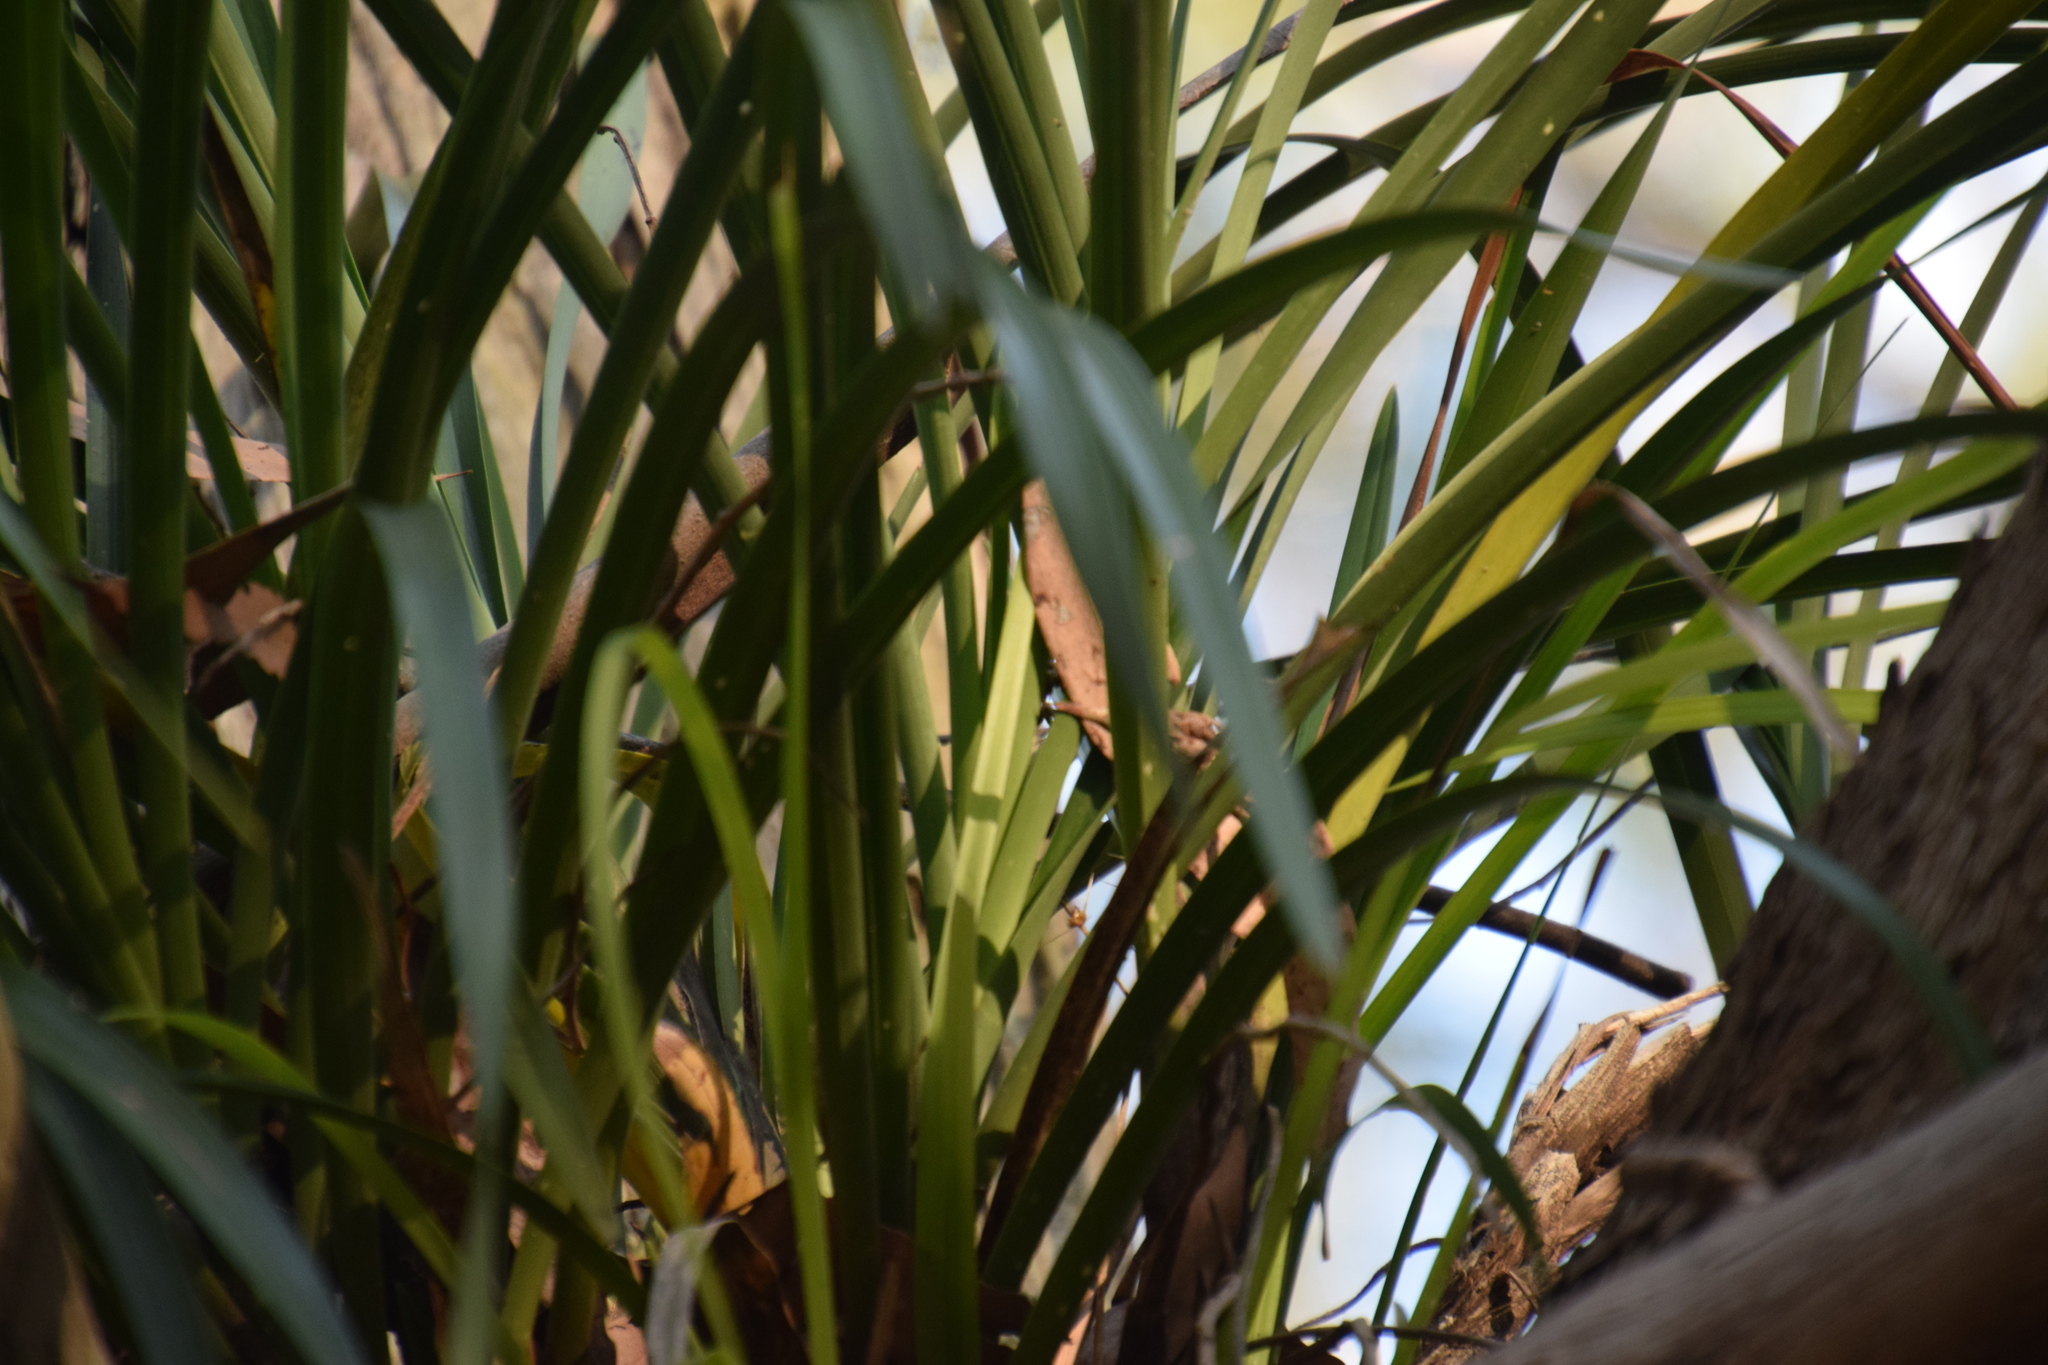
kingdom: Plantae
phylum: Tracheophyta
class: Liliopsida
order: Asparagales
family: Orchidaceae
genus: Cymbidium
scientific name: Cymbidium suave
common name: Snake orchid
